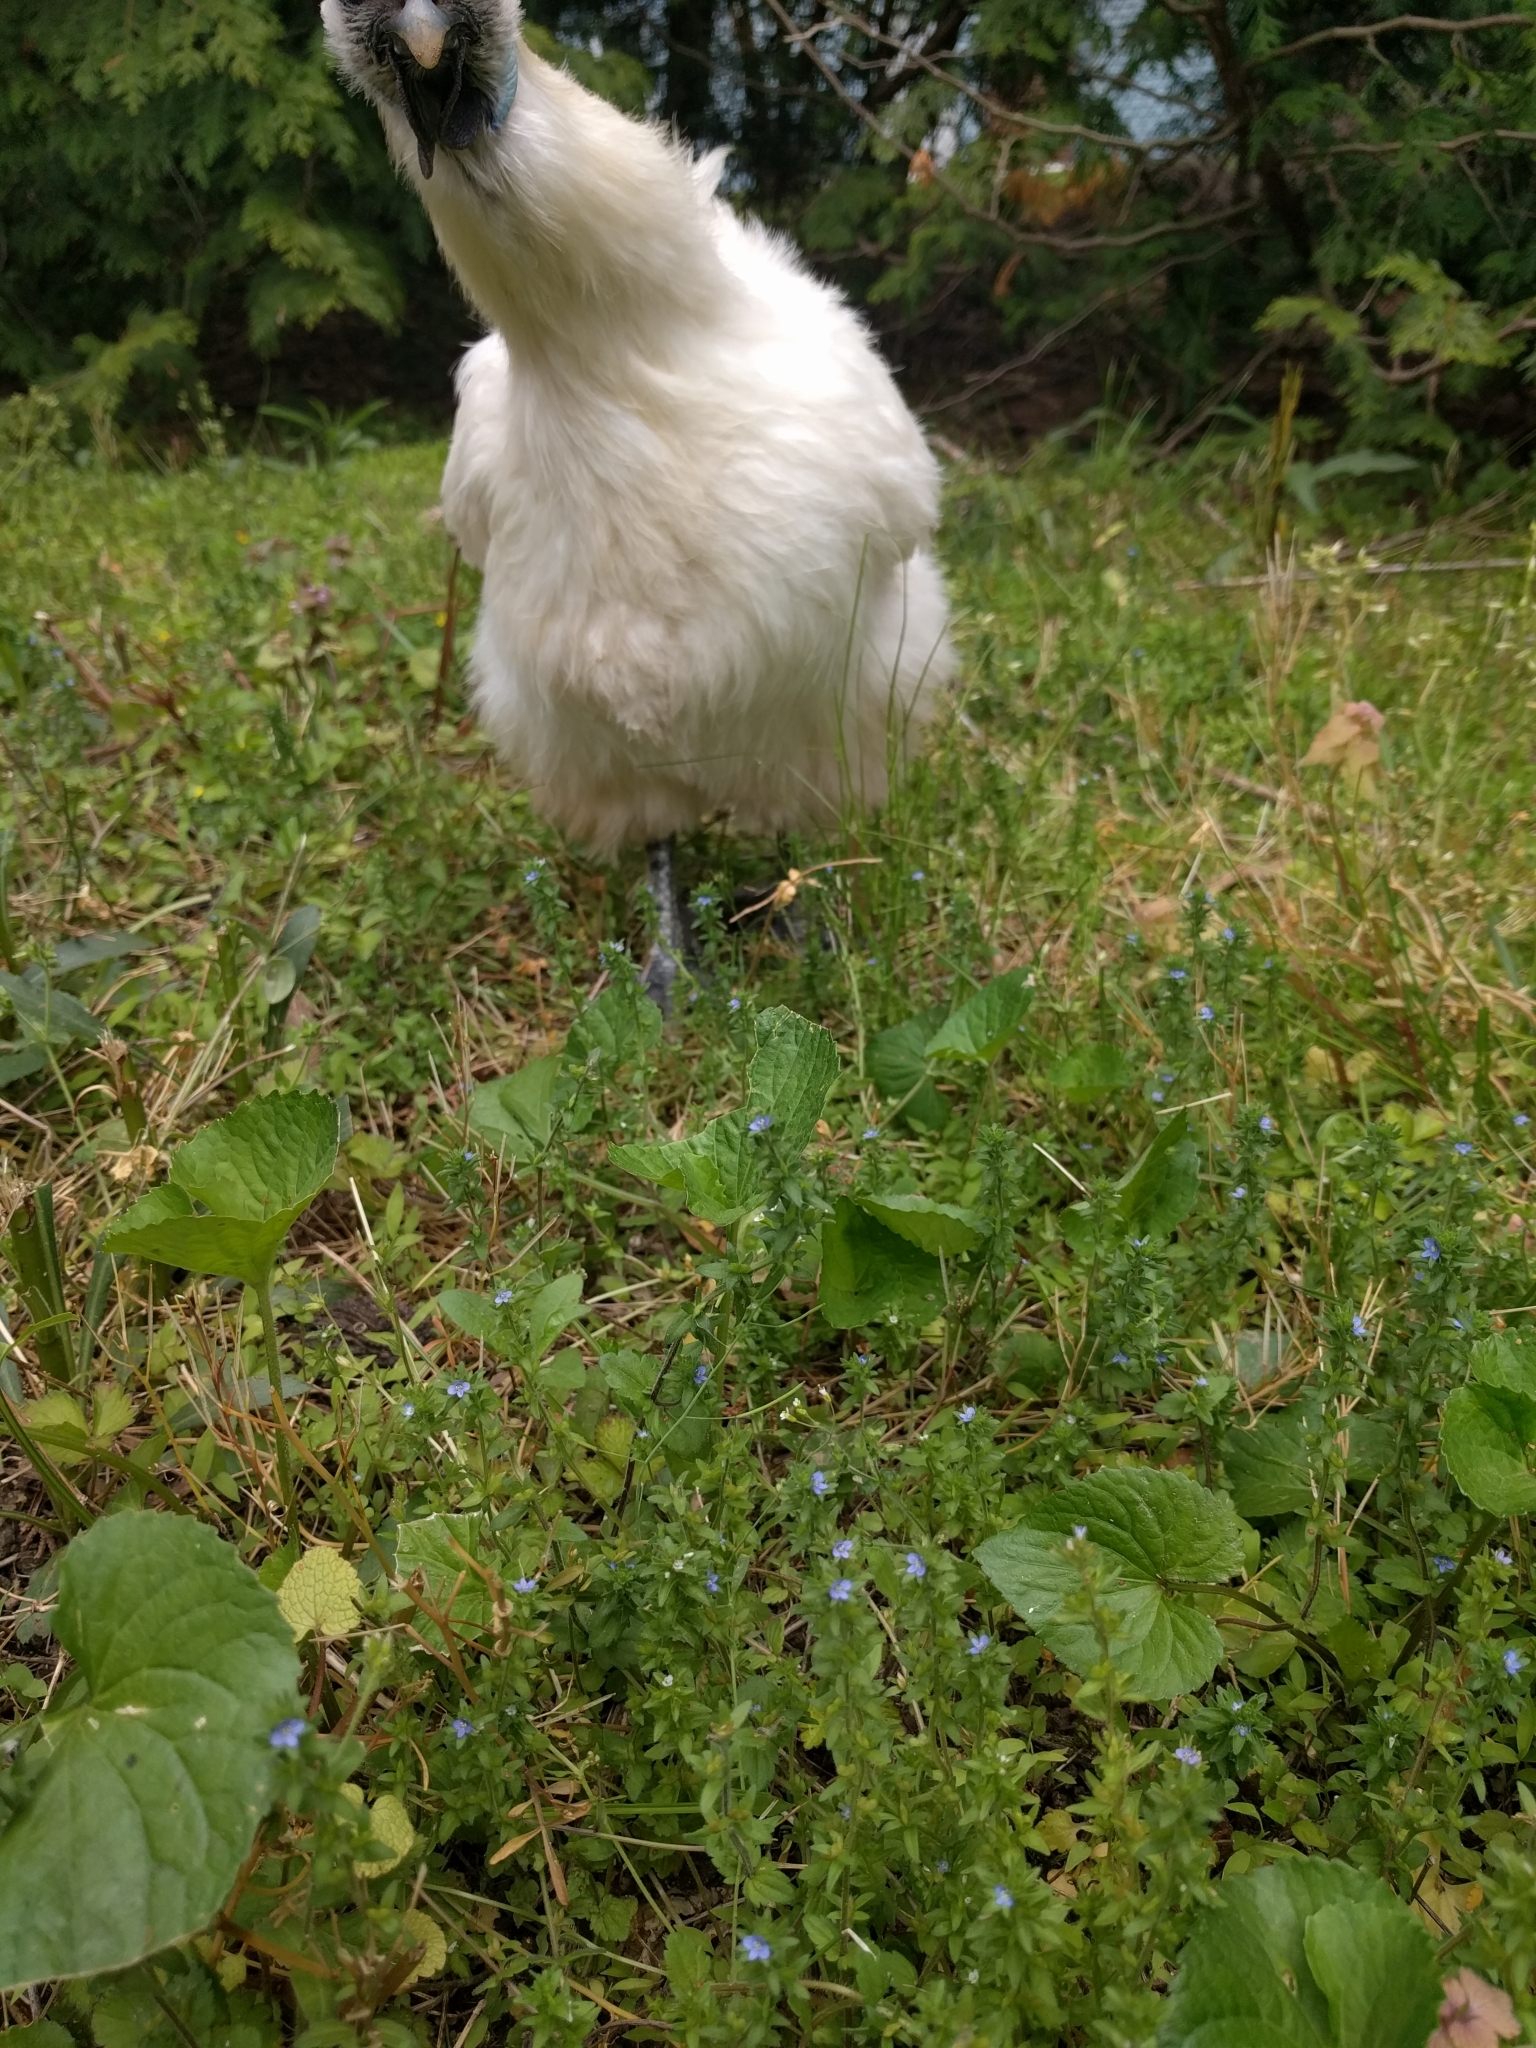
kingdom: Plantae
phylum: Tracheophyta
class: Magnoliopsida
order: Lamiales
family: Plantaginaceae
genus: Veronica
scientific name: Veronica arvensis
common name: Corn speedwell
